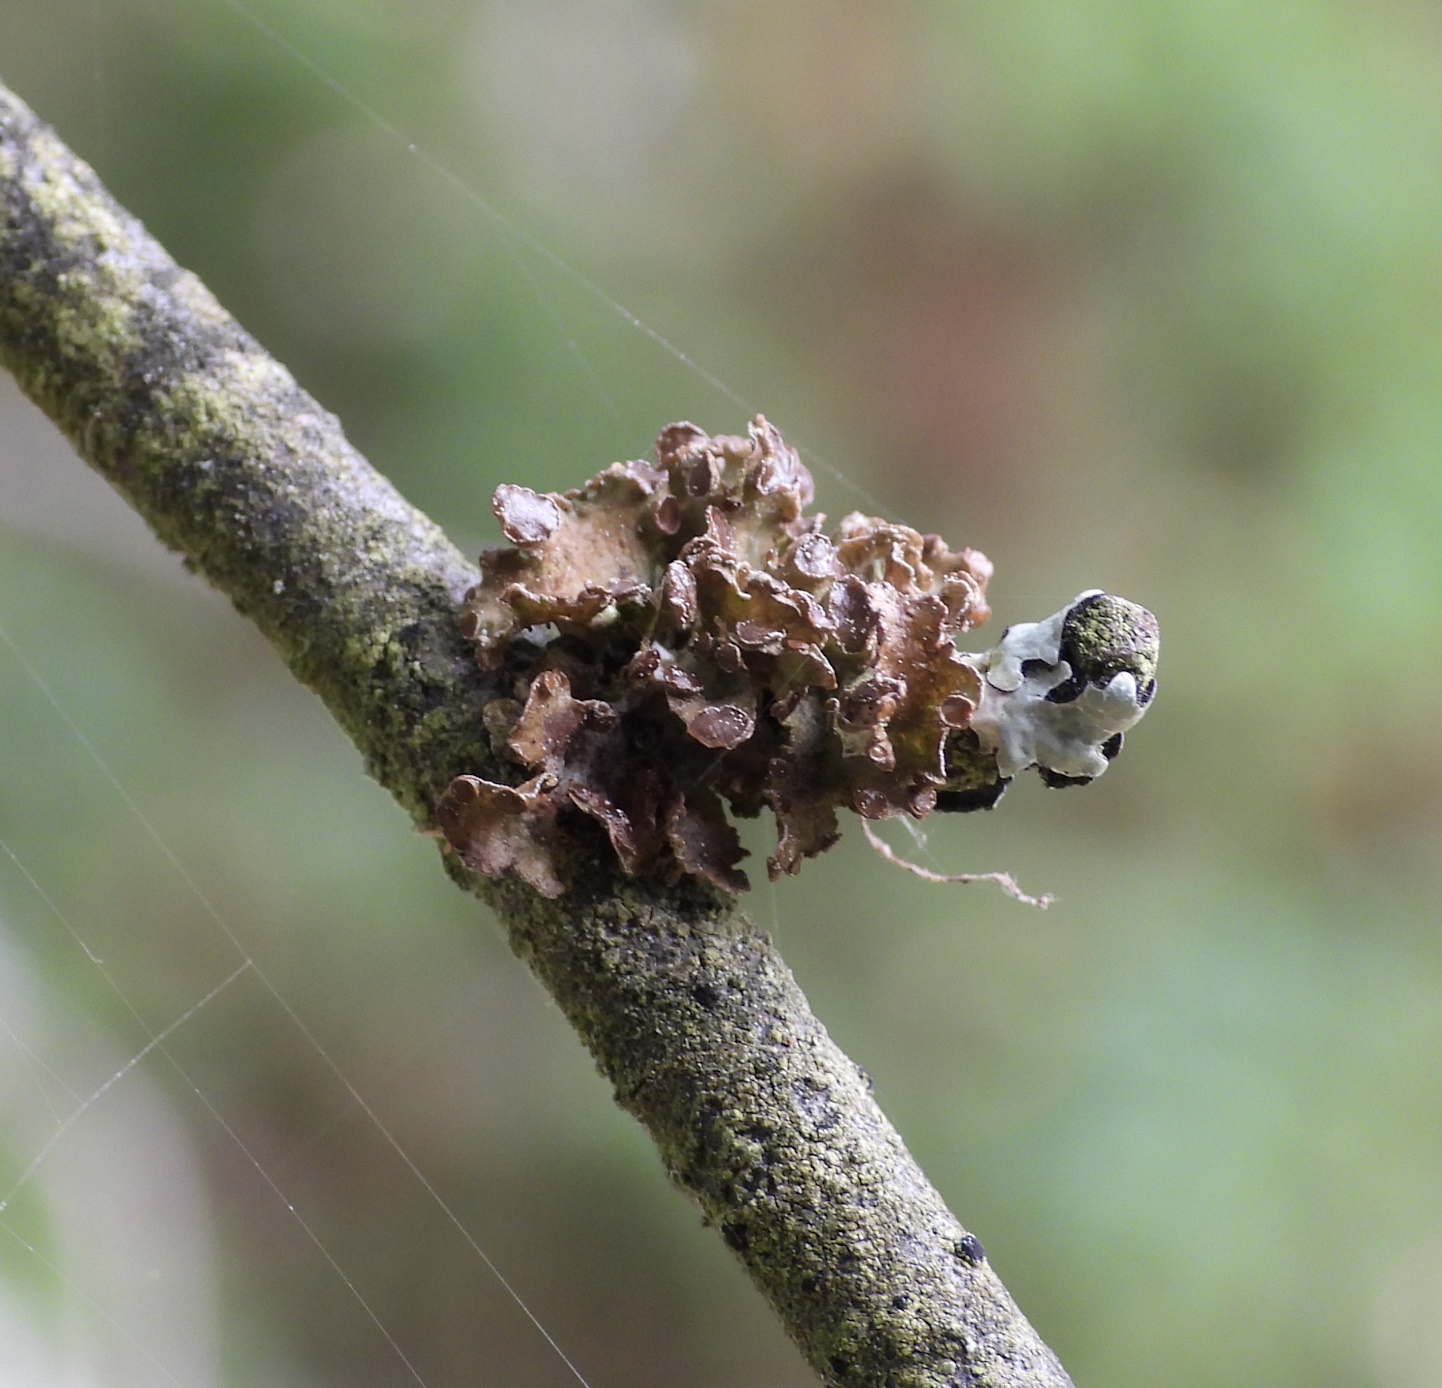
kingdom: Fungi
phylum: Ascomycota
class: Lecanoromycetes
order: Lecanorales
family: Parmeliaceae
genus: Cetraria
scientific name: Cetraria sepincola
